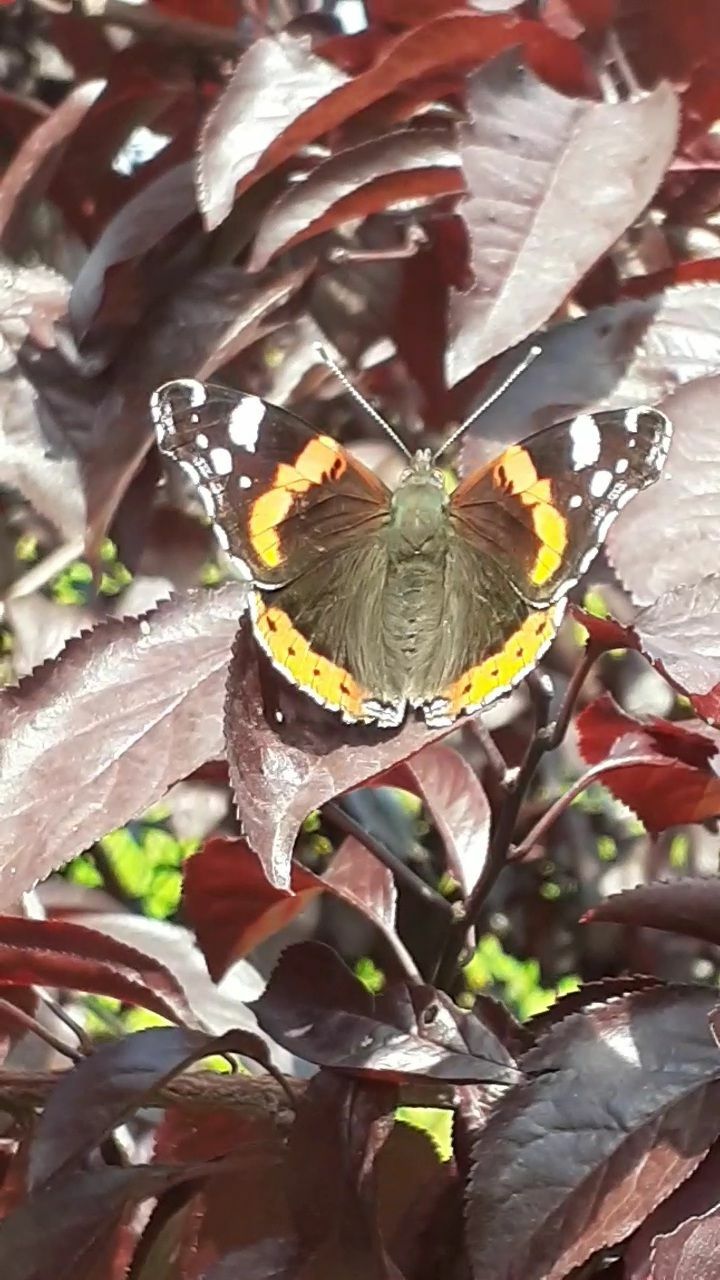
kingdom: Animalia
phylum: Arthropoda
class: Insecta
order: Lepidoptera
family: Nymphalidae
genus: Vanessa
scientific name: Vanessa atalanta
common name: Red admiral
